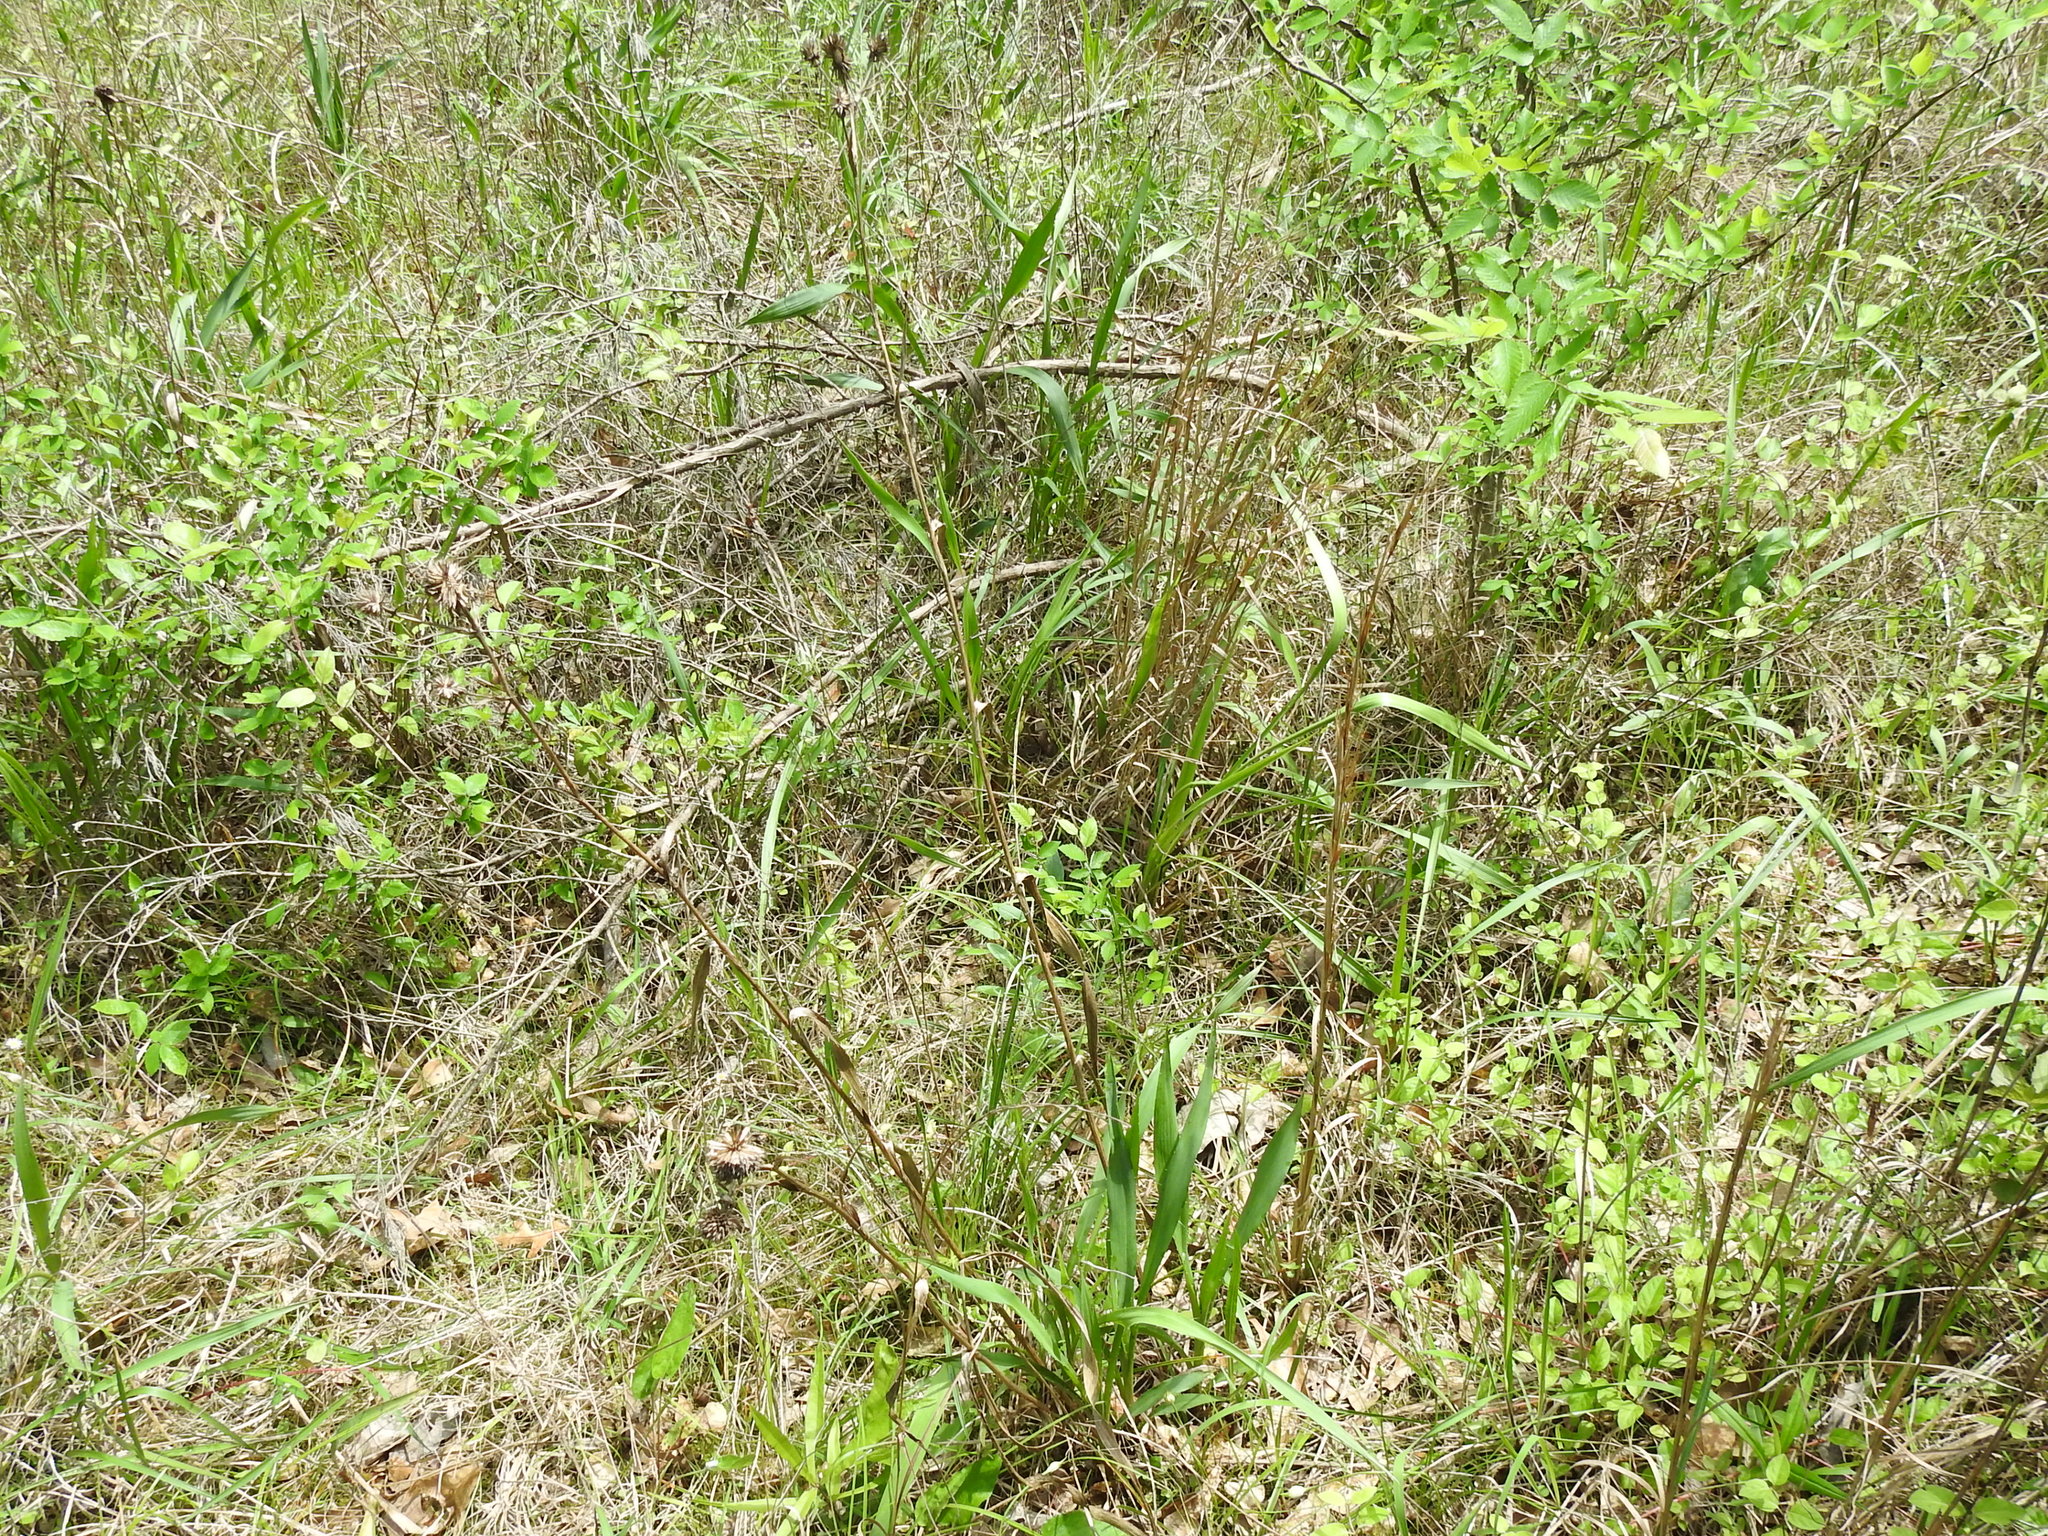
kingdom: Plantae
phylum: Tracheophyta
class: Magnoliopsida
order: Apiales
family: Apiaceae
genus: Eryngium
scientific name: Eryngium yuccifolium
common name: Button eryngo
